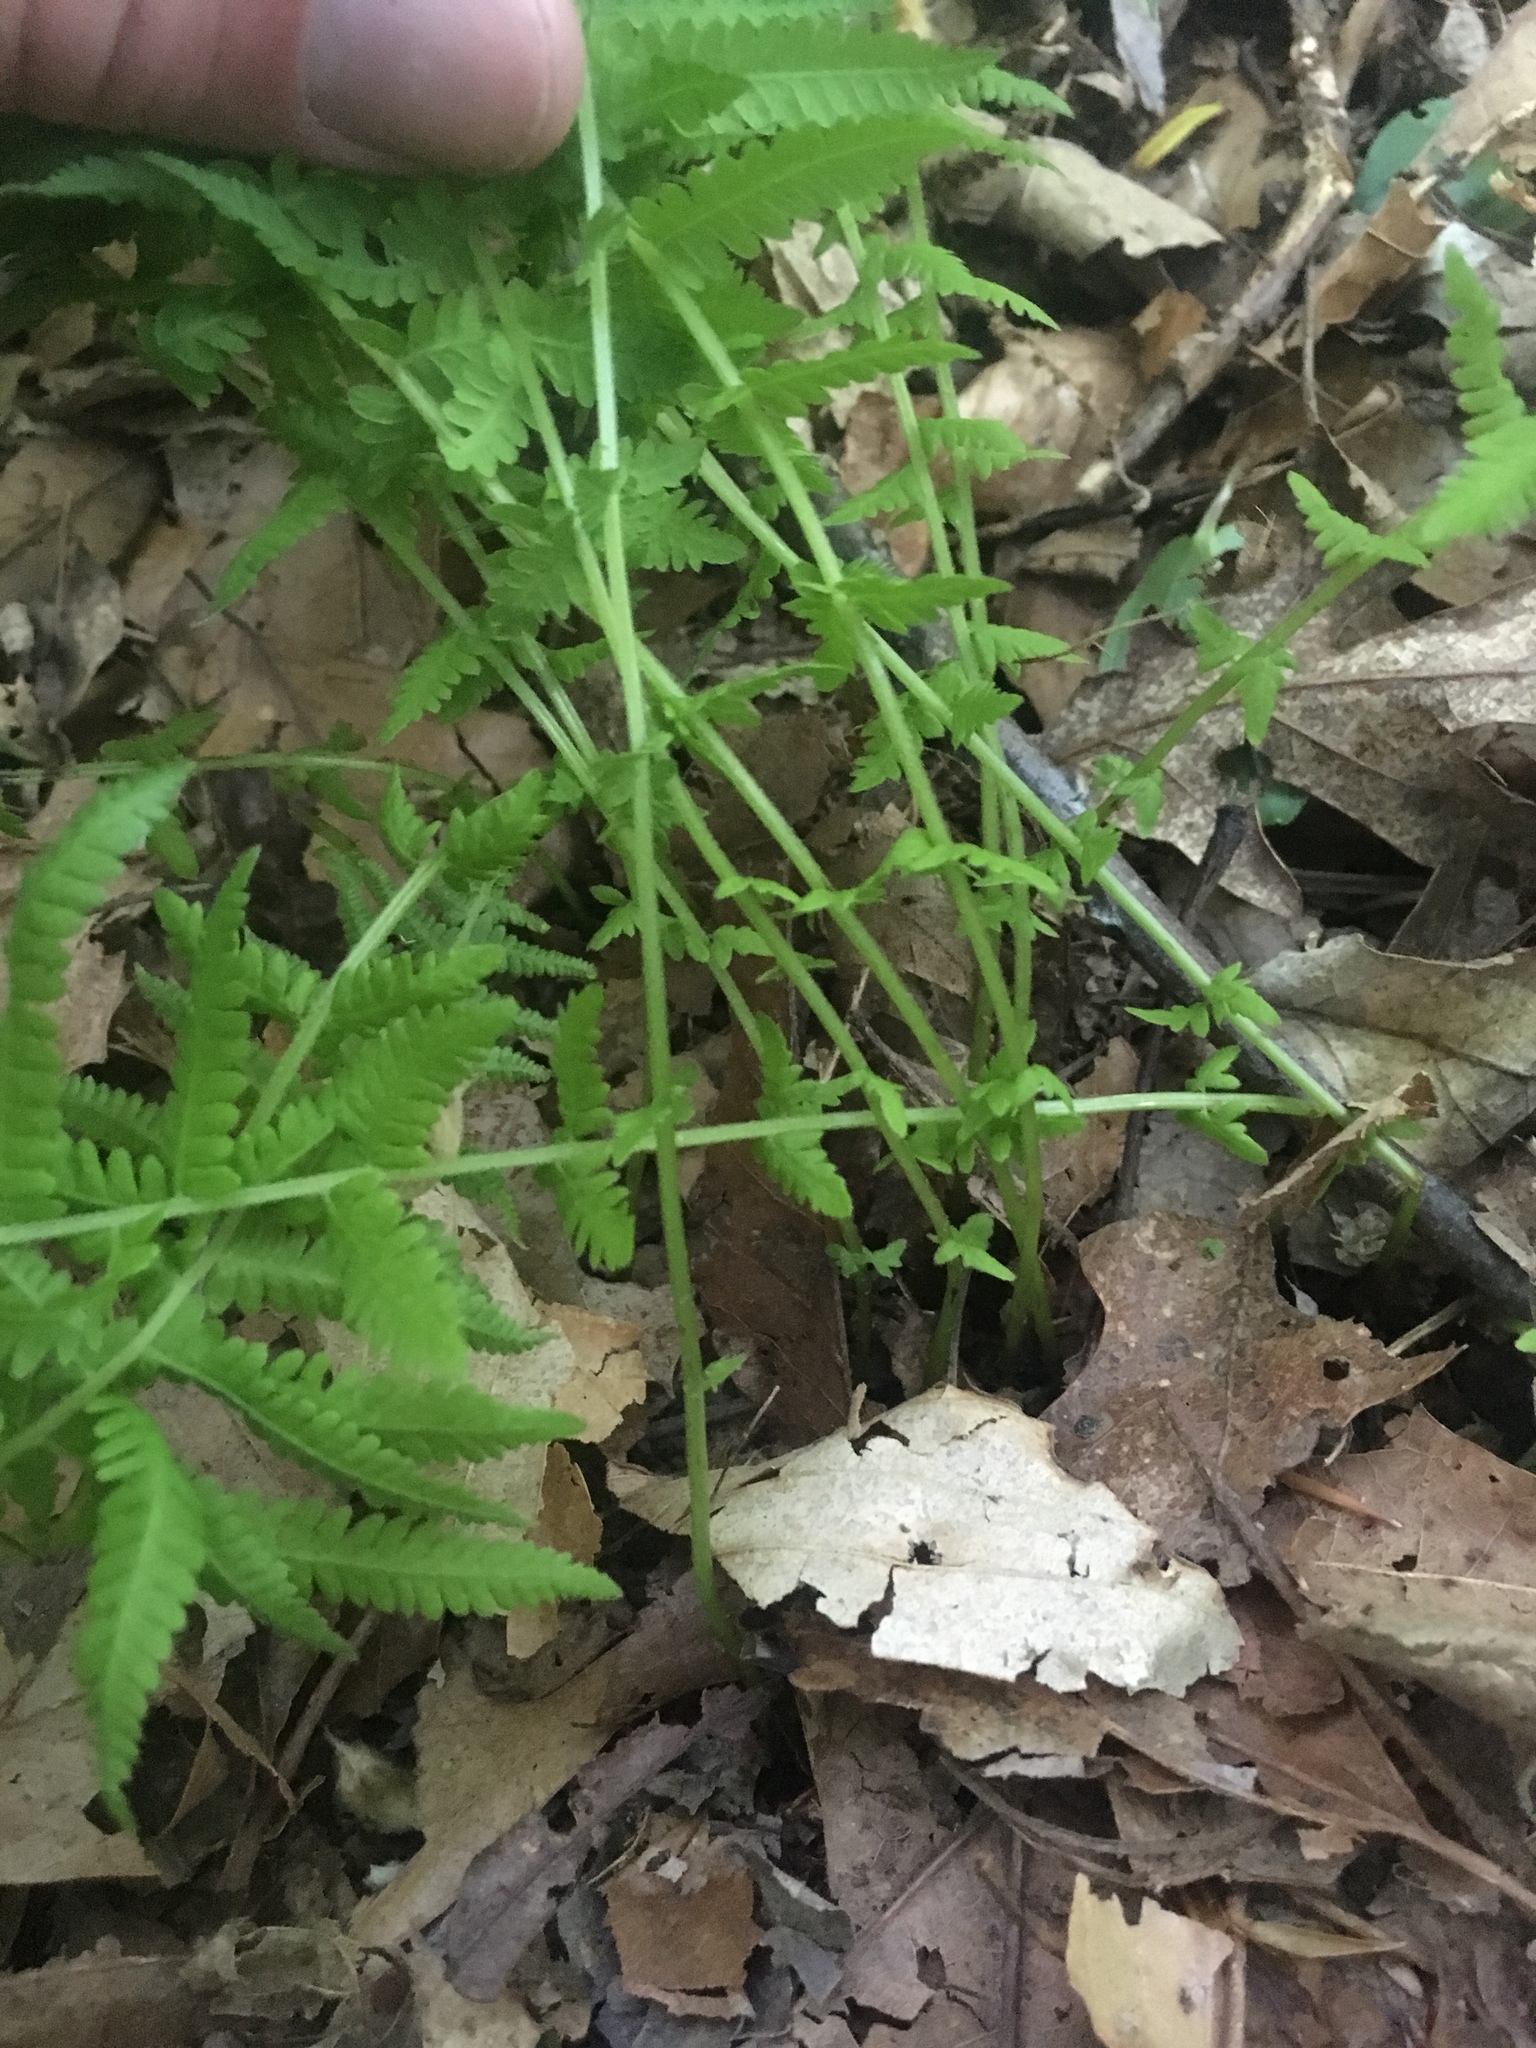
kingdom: Plantae
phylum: Tracheophyta
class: Polypodiopsida
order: Polypodiales
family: Thelypteridaceae
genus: Amauropelta
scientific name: Amauropelta noveboracensis
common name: New york fern
